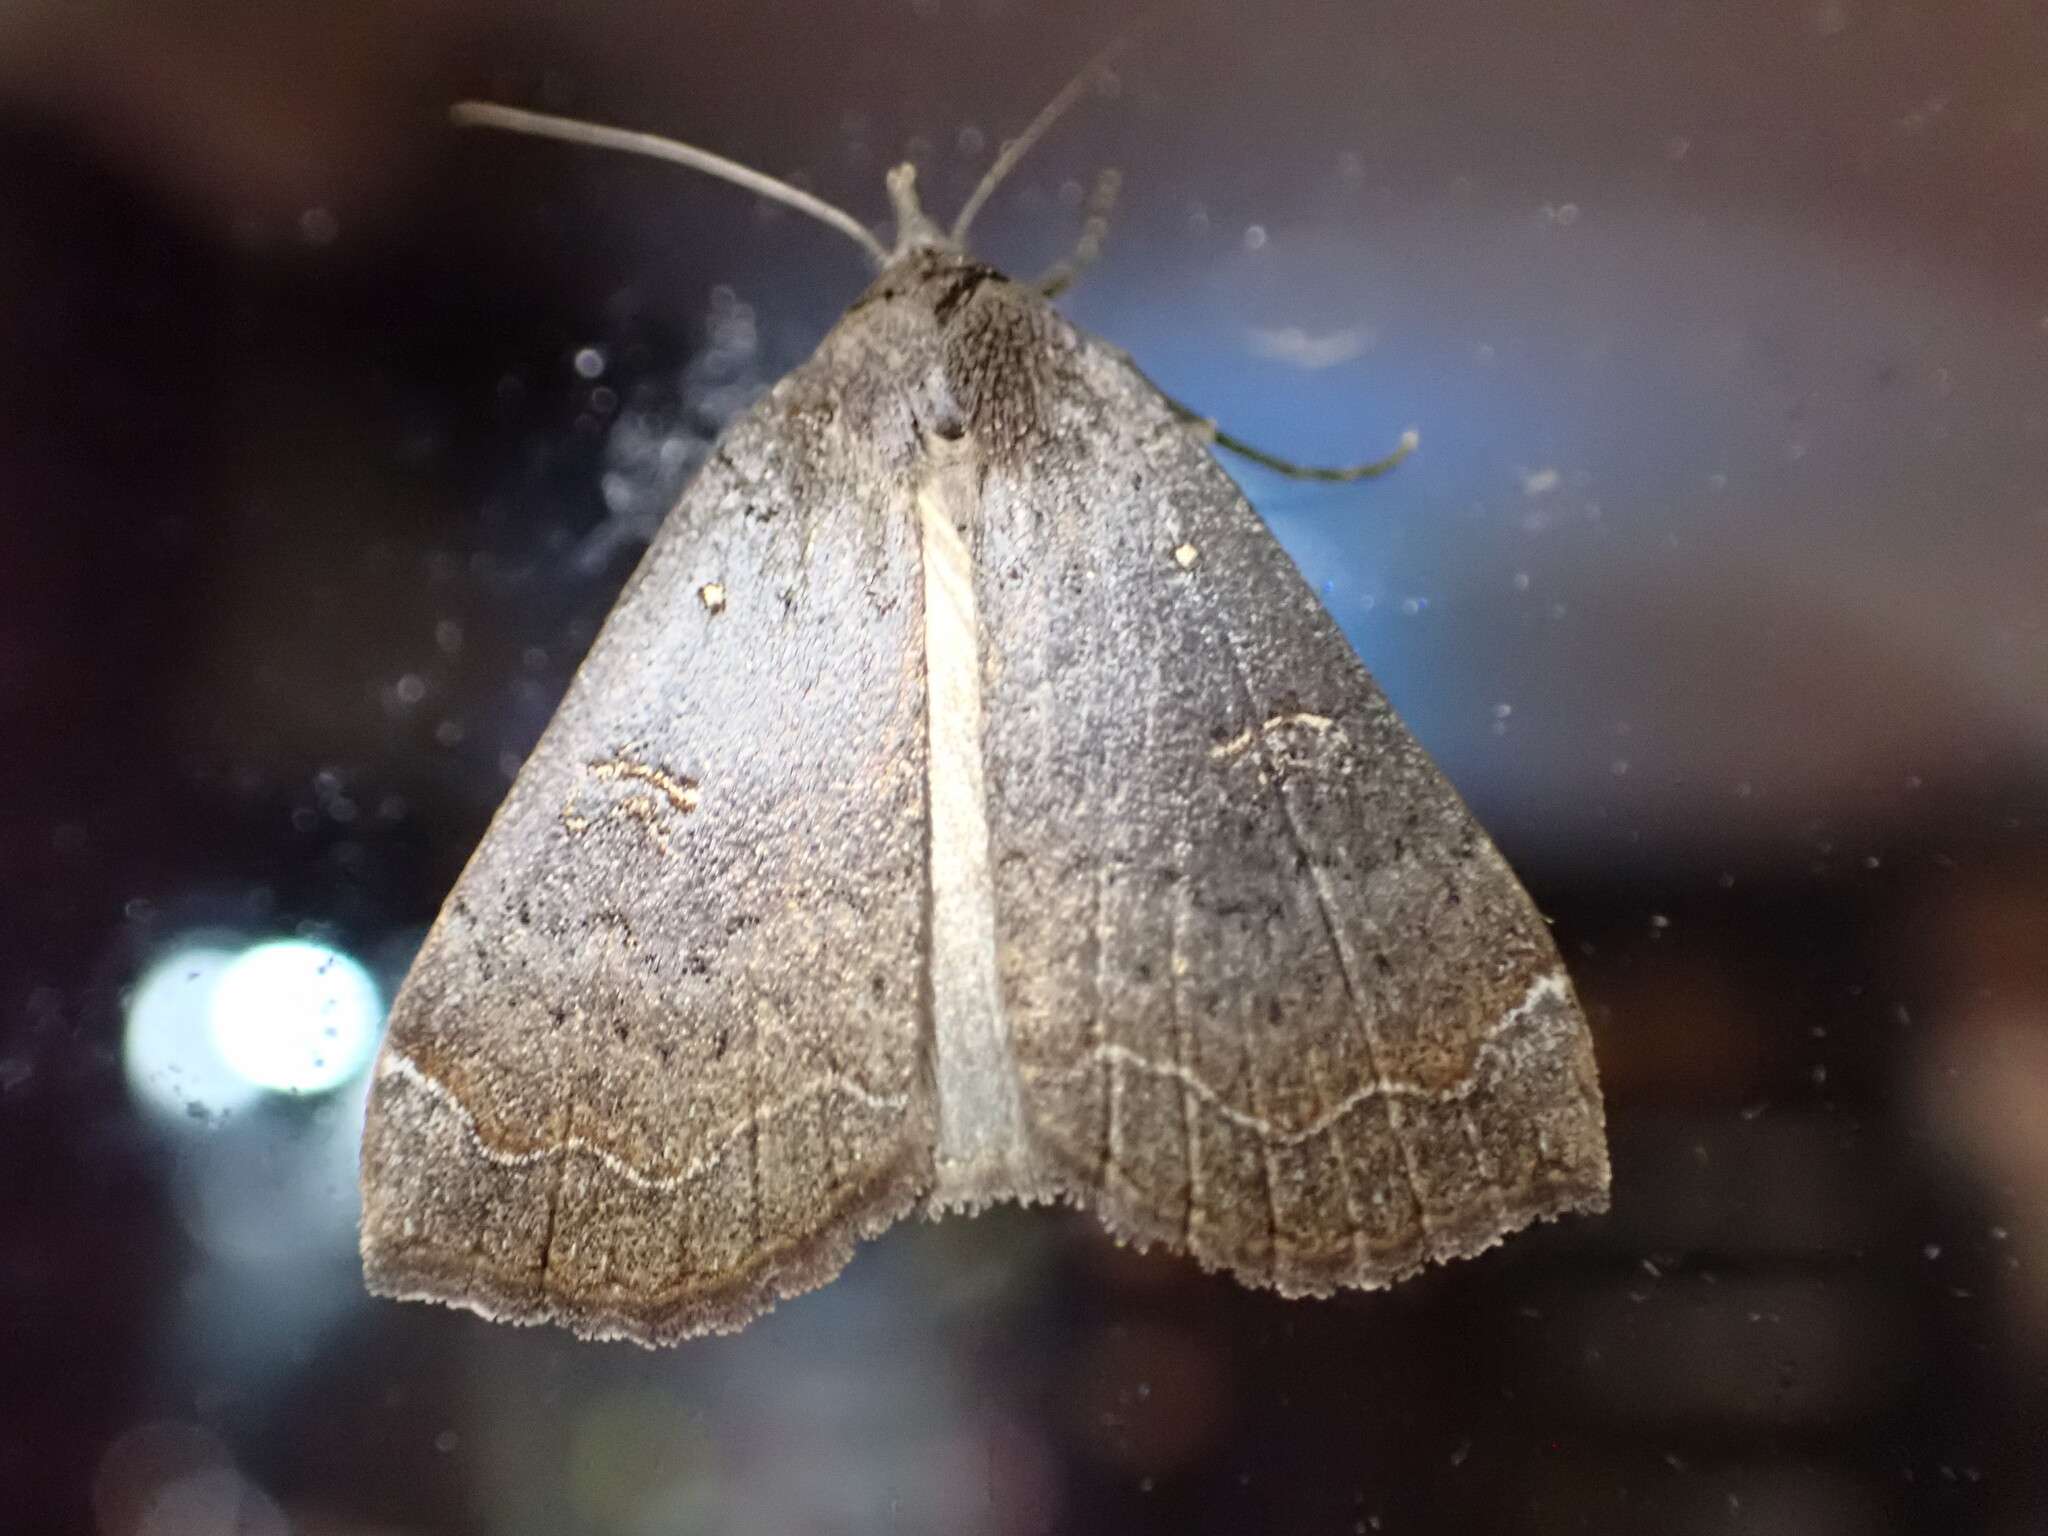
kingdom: Animalia
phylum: Arthropoda
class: Insecta
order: Lepidoptera
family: Erebidae
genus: Rhapsa
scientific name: Rhapsa scotosialis
